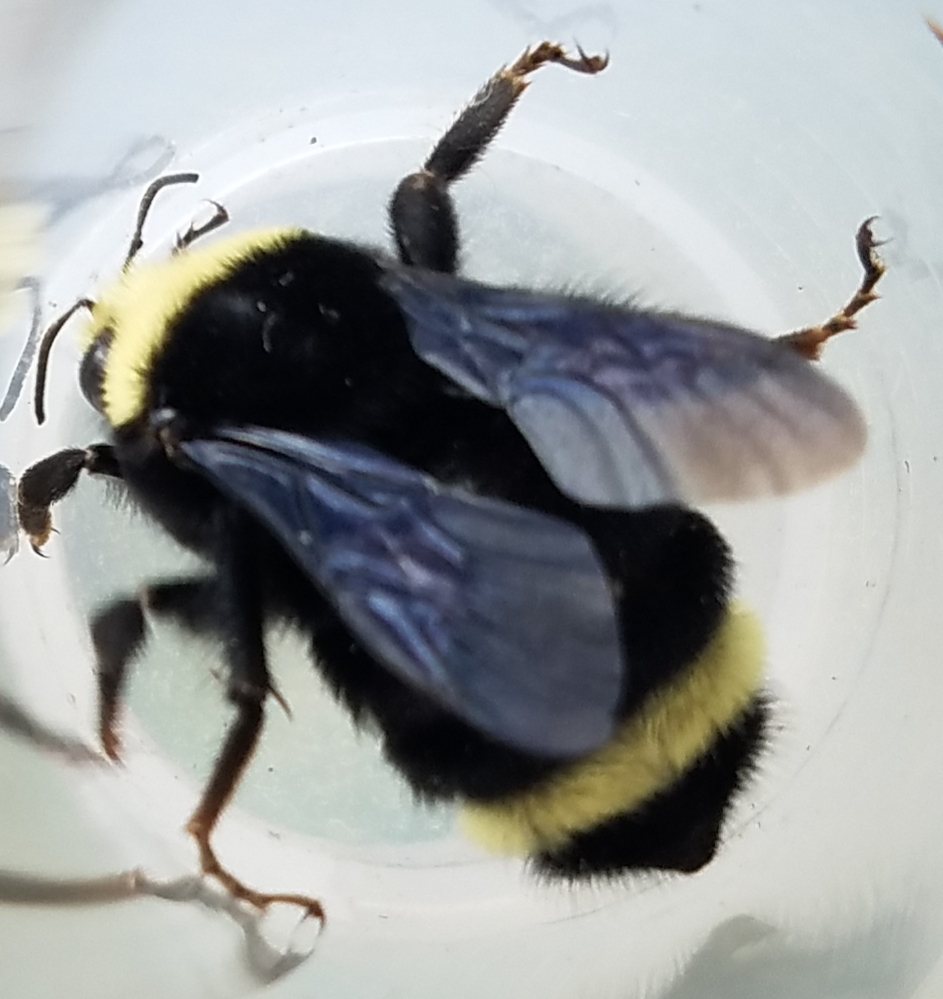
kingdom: Animalia
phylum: Arthropoda
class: Insecta
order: Hymenoptera
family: Apidae
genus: Bombus
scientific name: Bombus vosnesenskii
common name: Vosnesensky bumble bee
